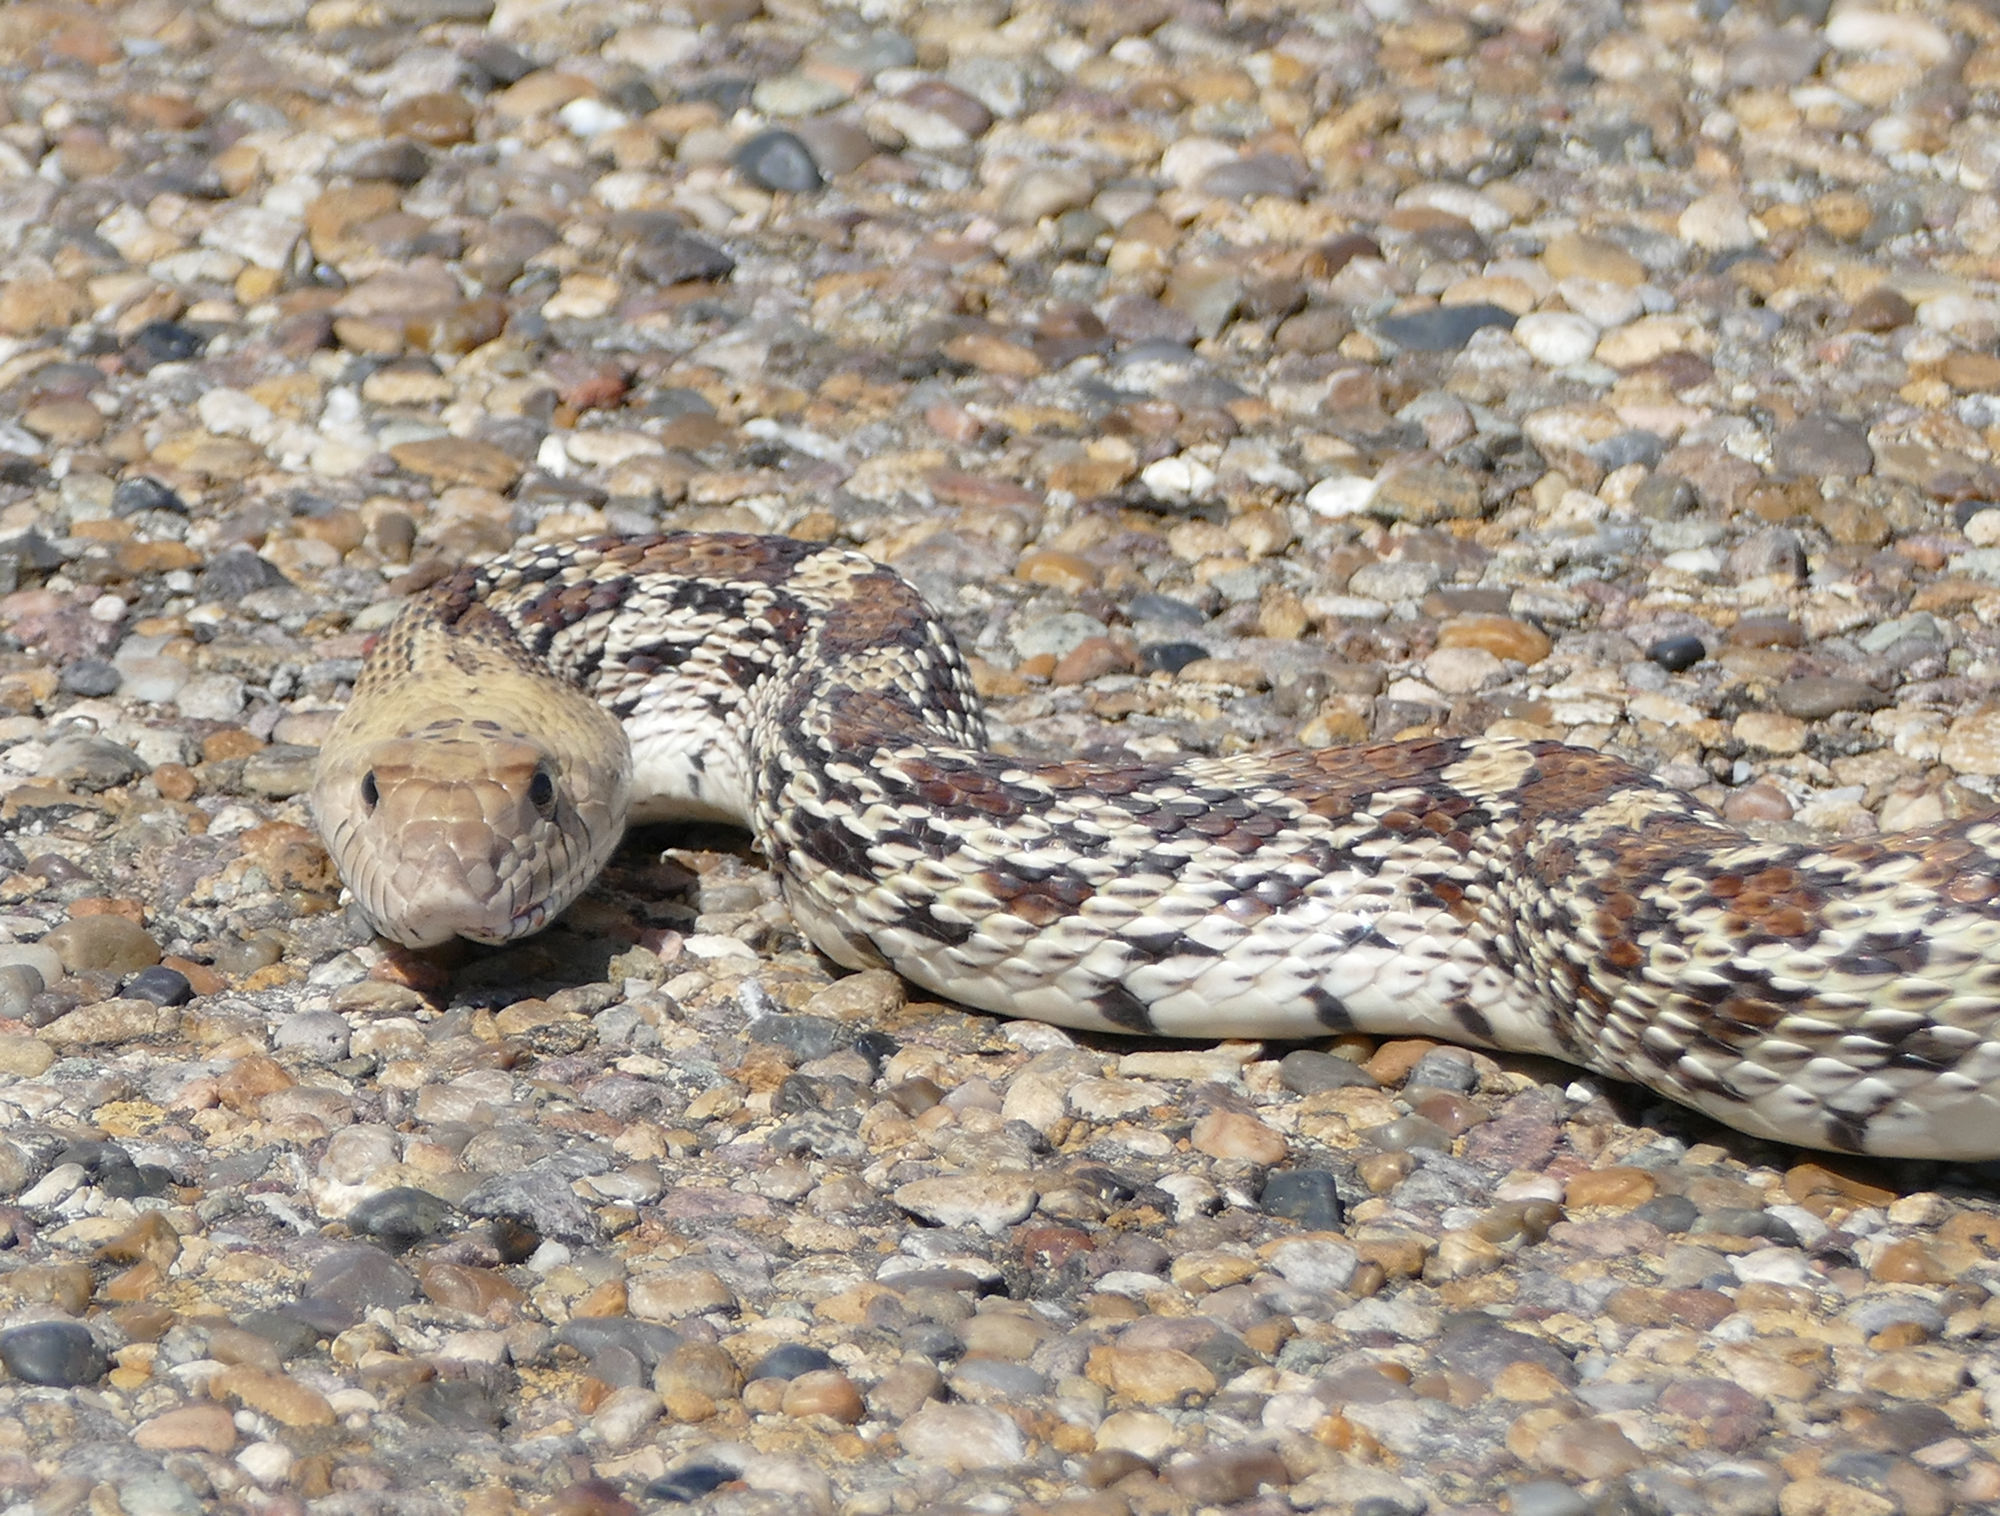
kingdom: Animalia
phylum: Chordata
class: Squamata
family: Colubridae
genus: Pituophis
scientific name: Pituophis catenifer
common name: Gopher snake
